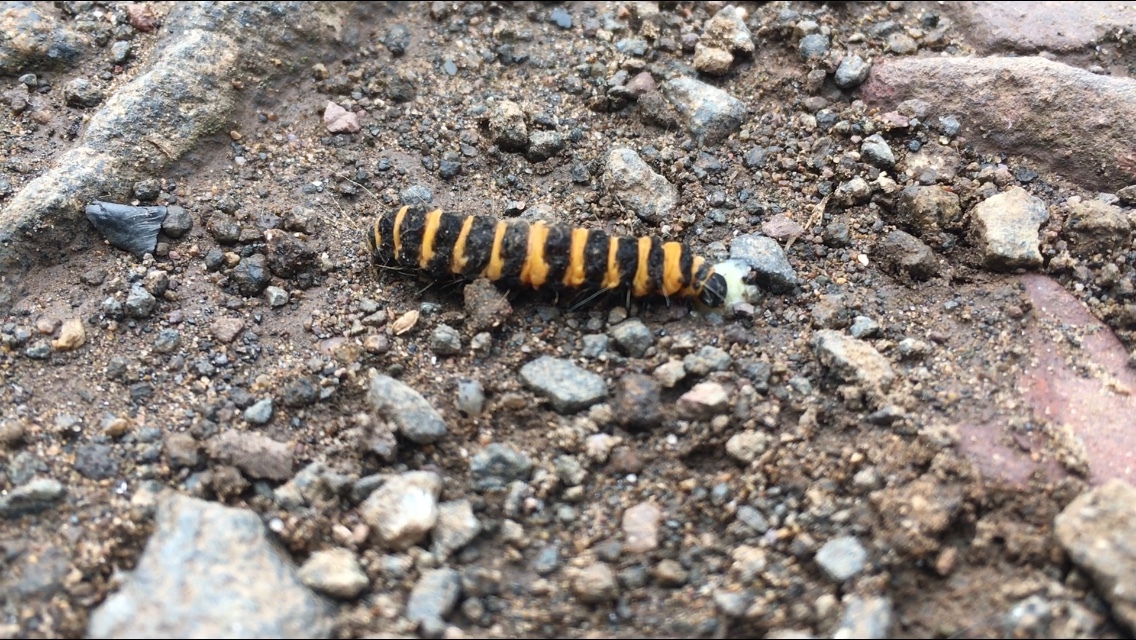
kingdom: Animalia
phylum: Arthropoda
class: Insecta
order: Lepidoptera
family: Erebidae
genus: Tyria
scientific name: Tyria jacobaeae
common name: Cinnabar
